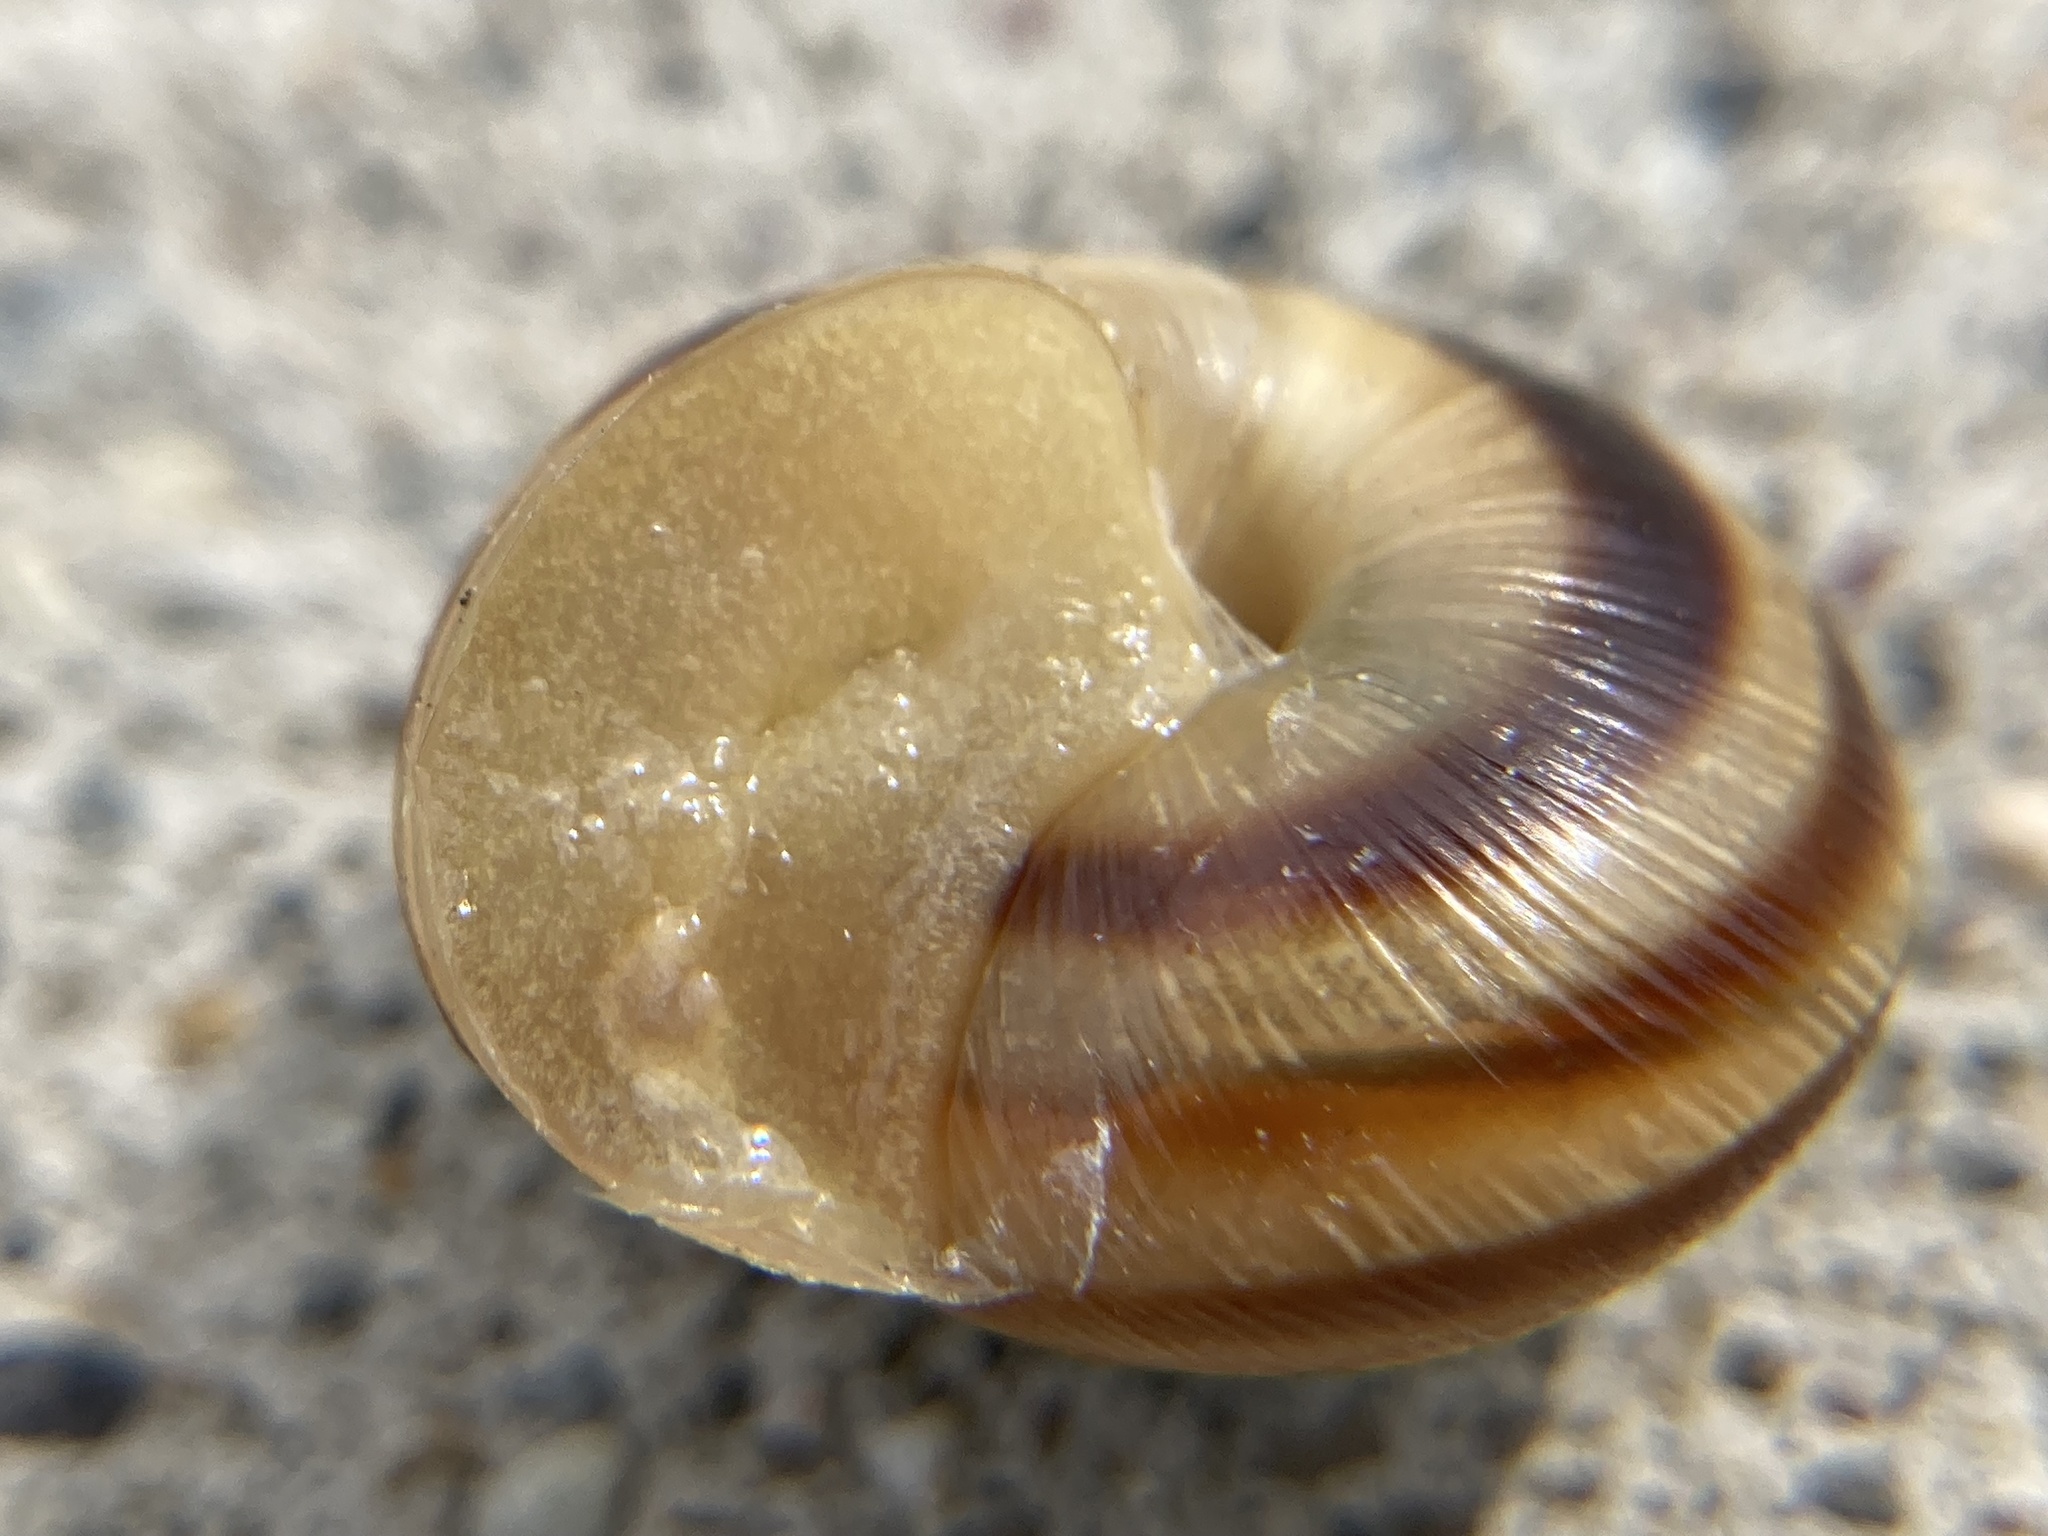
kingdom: Animalia
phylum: Mollusca
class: Gastropoda
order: Stylommatophora
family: Helicidae
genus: Caucasotachea
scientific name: Caucasotachea vindobonensis
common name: European helicid land snail
